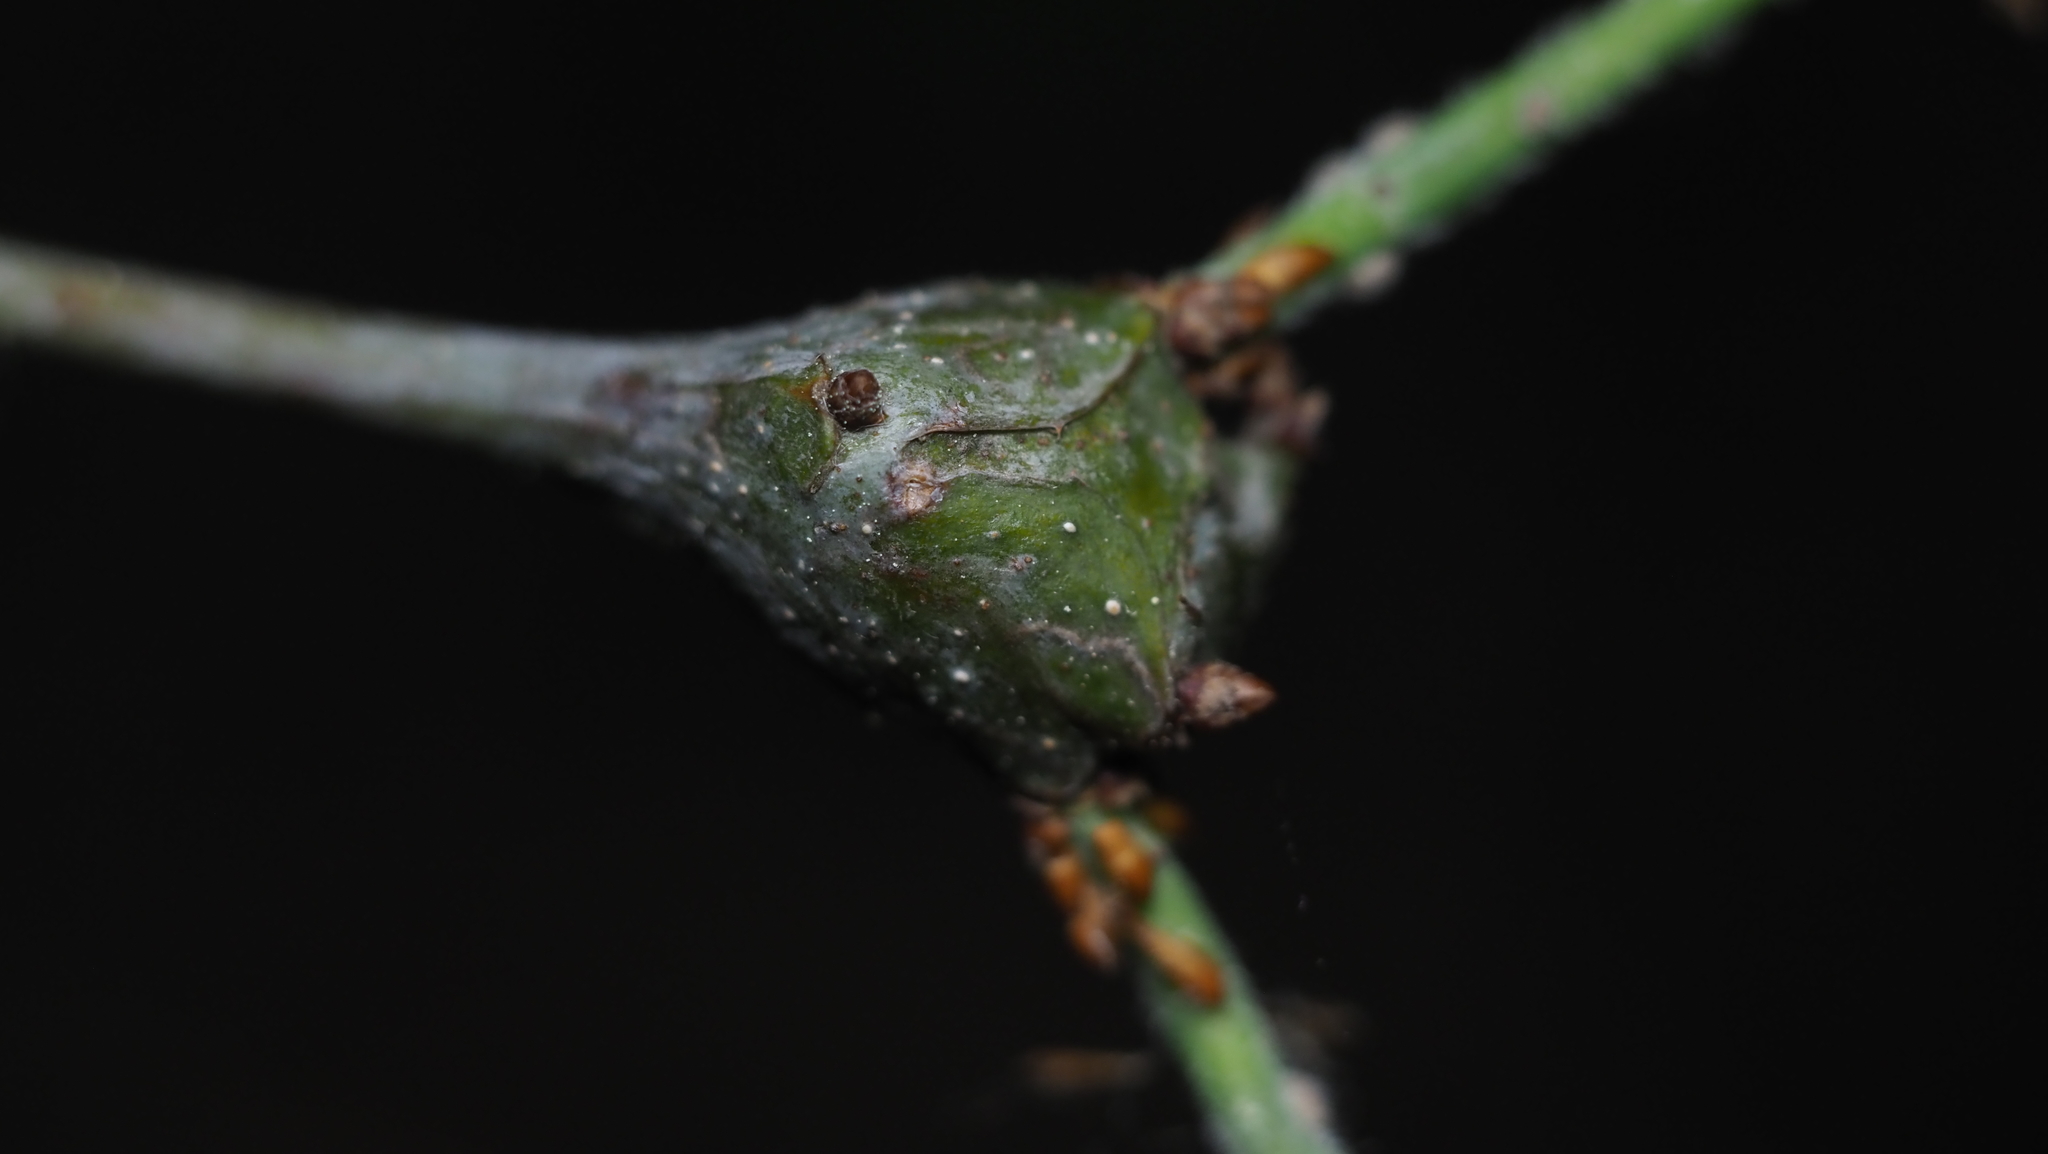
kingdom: Animalia
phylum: Arthropoda
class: Insecta
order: Hymenoptera
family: Cynipidae
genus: Callirhytis
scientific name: Callirhytis clavula
